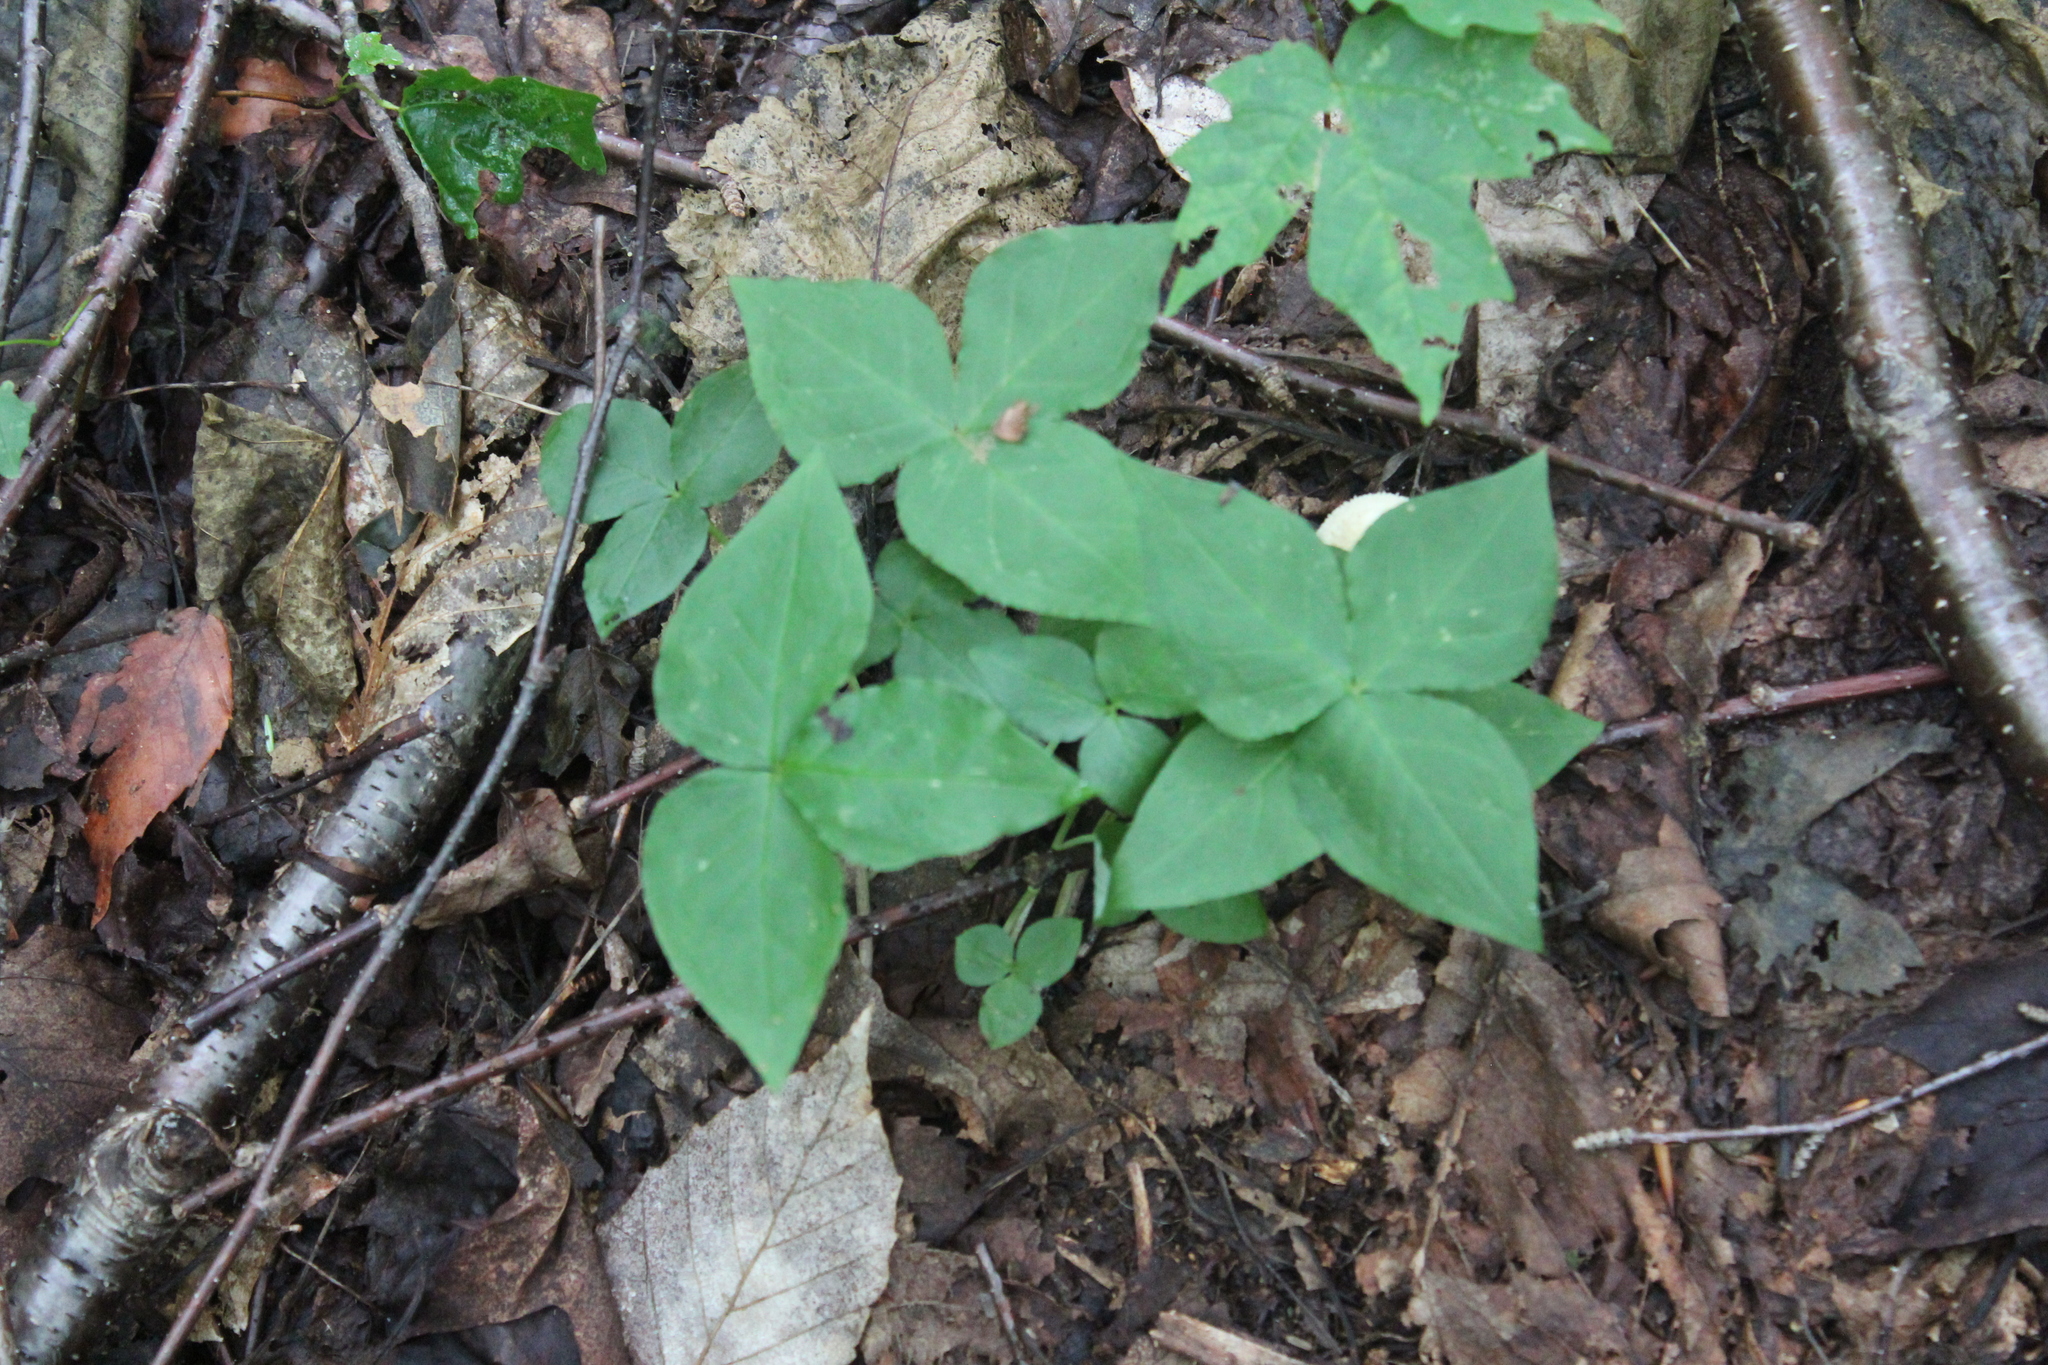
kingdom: Plantae
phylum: Tracheophyta
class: Liliopsida
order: Alismatales
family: Araceae
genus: Arisaema
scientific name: Arisaema triphyllum
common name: Jack-in-the-pulpit
